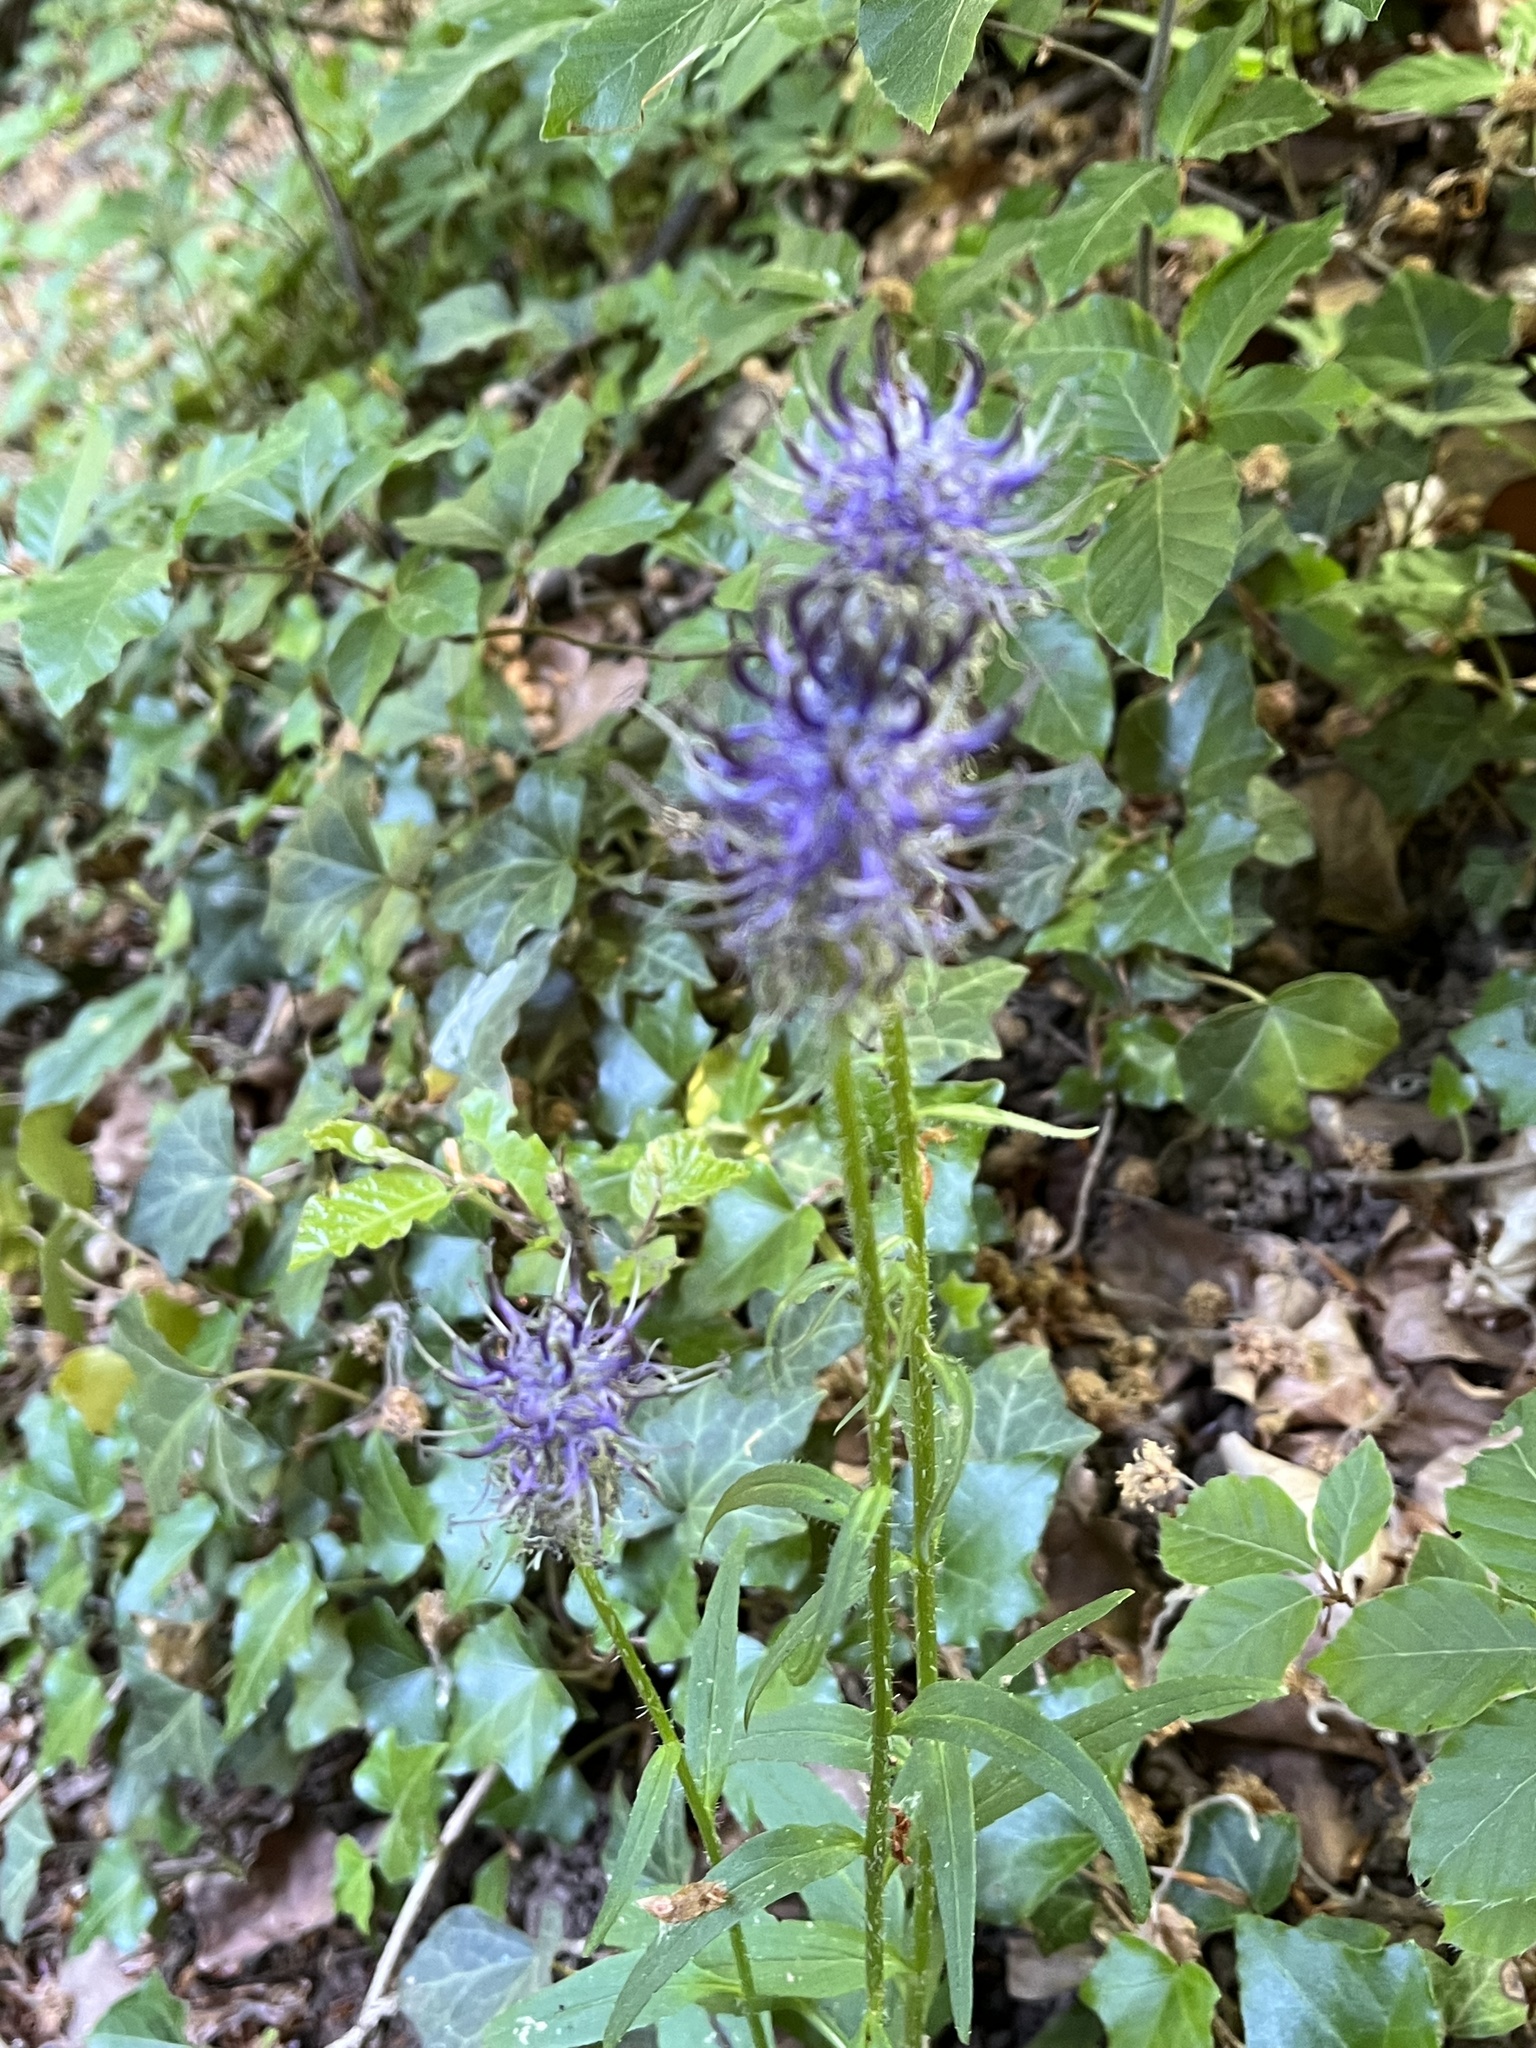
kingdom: Plantae
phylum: Tracheophyta
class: Magnoliopsida
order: Asterales
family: Campanulaceae
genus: Phyteuma
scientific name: Phyteuma nigrum
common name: Black rampion
